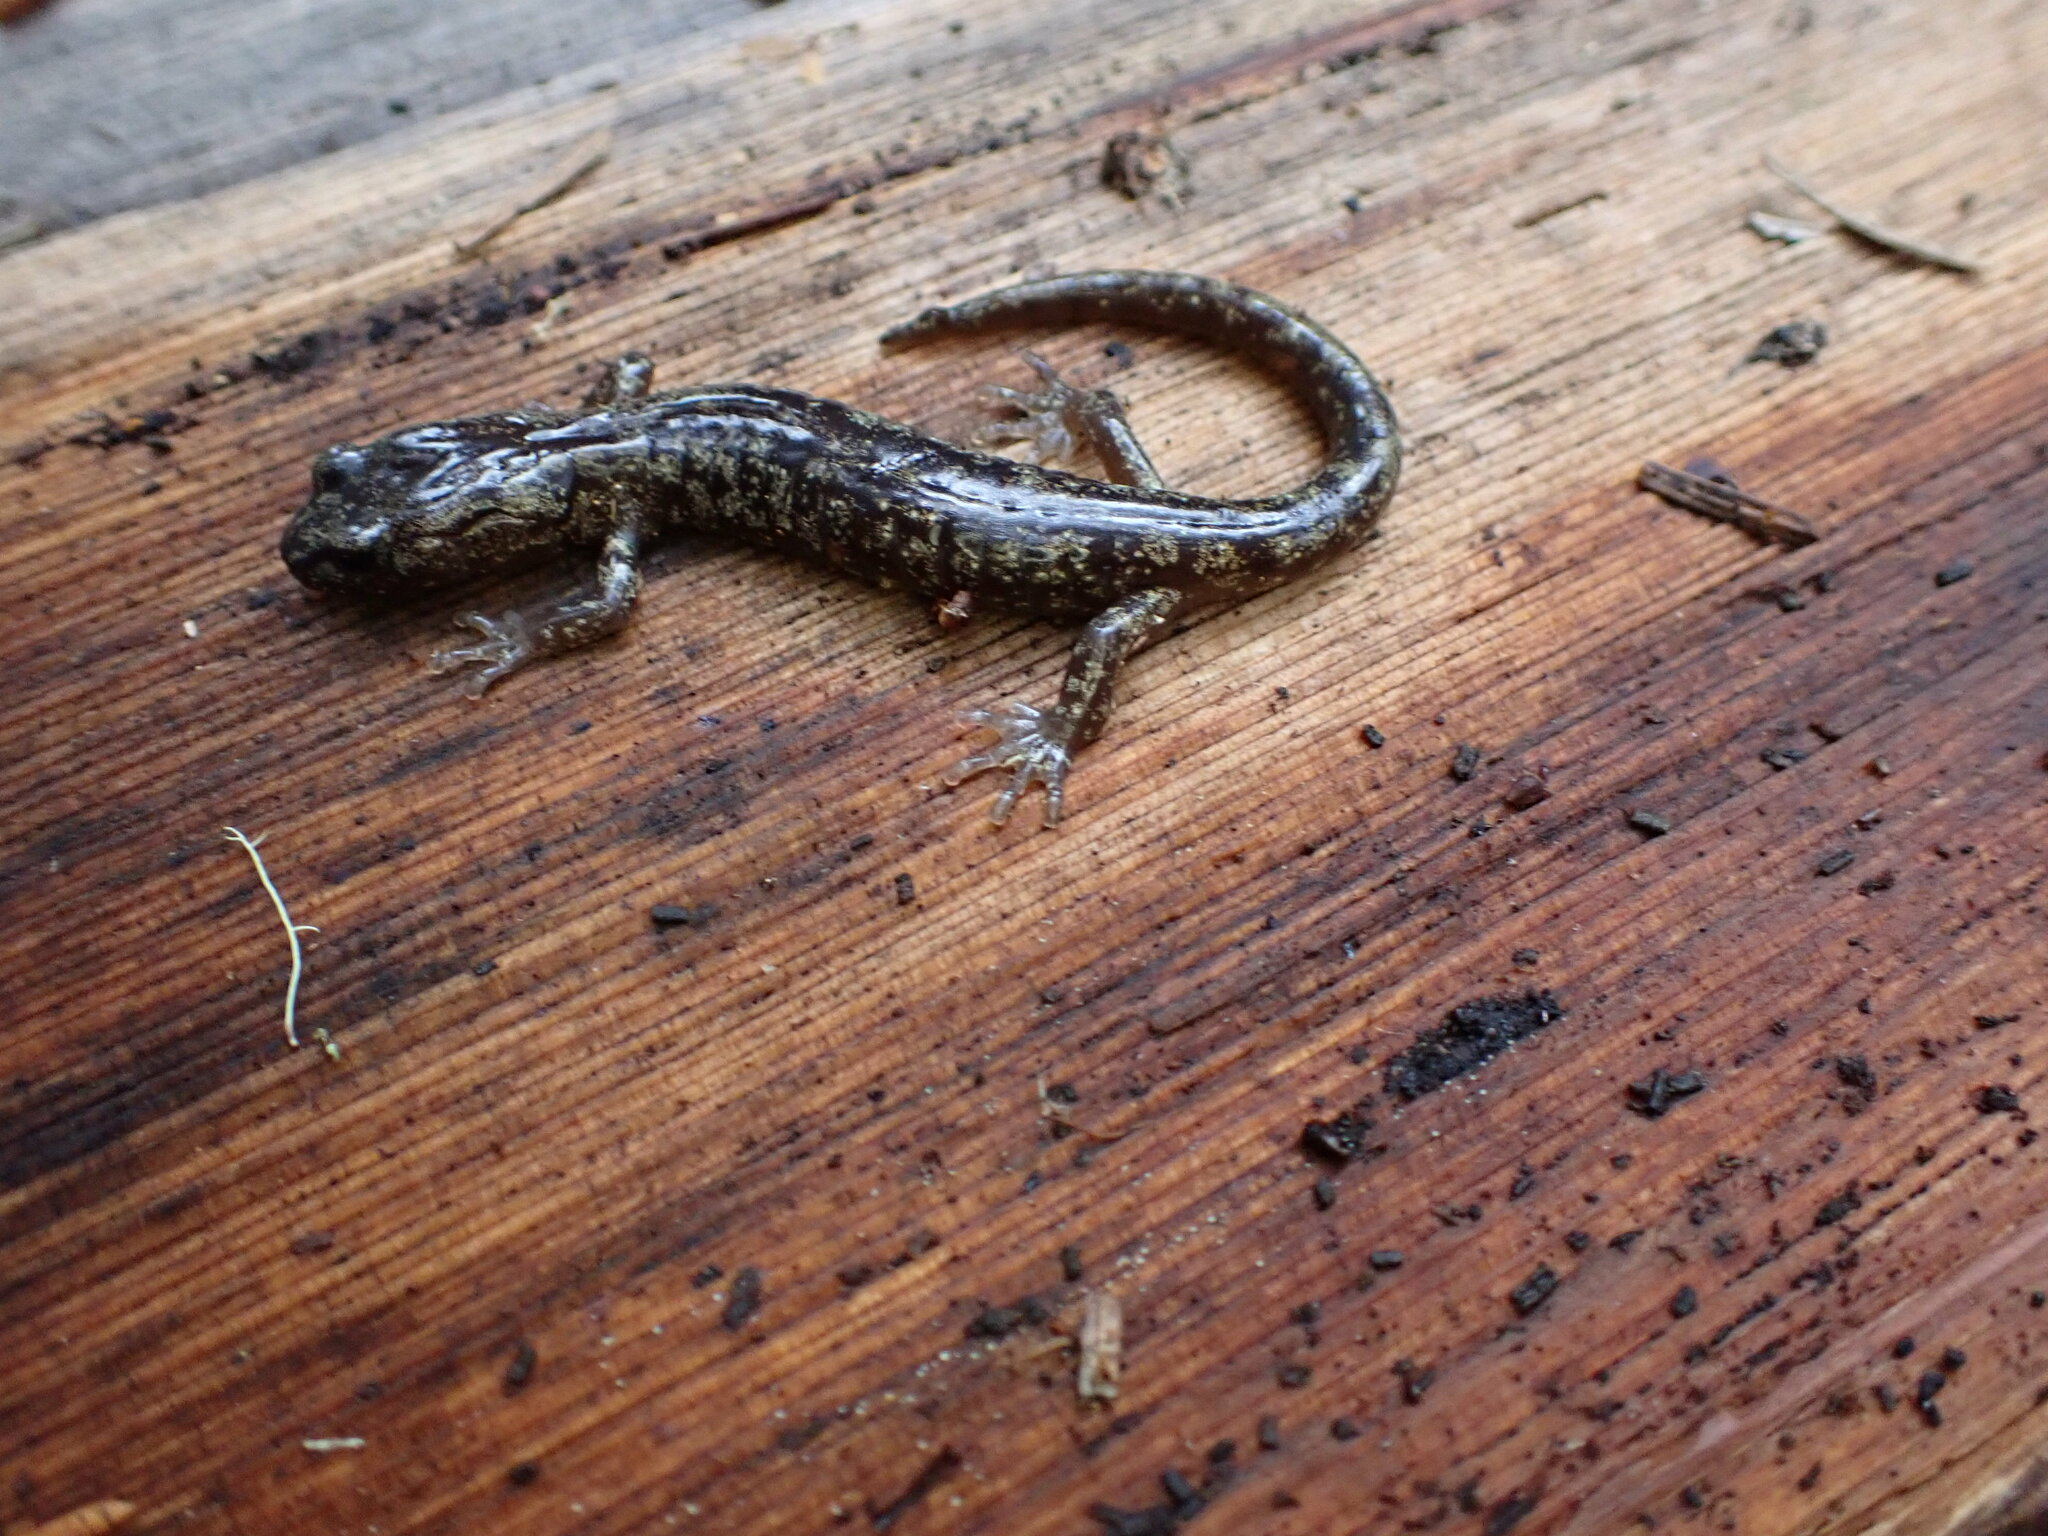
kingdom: Animalia
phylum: Chordata
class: Amphibia
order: Caudata
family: Plethodontidae
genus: Aneides
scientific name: Aneides vagrans
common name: Wandering salamander
